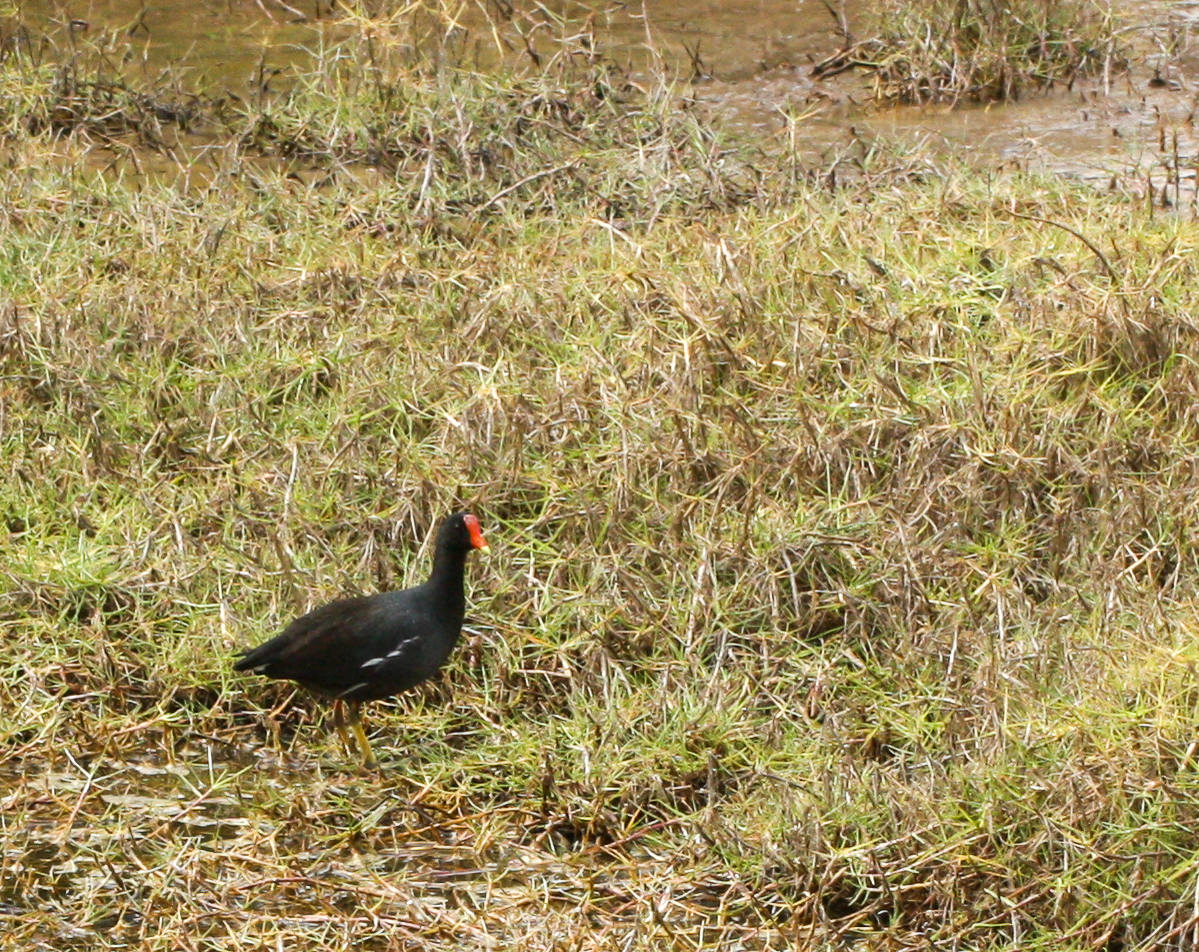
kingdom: Animalia
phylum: Chordata
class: Aves
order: Gruiformes
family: Rallidae
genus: Gallinula
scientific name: Gallinula chloropus
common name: Common moorhen
